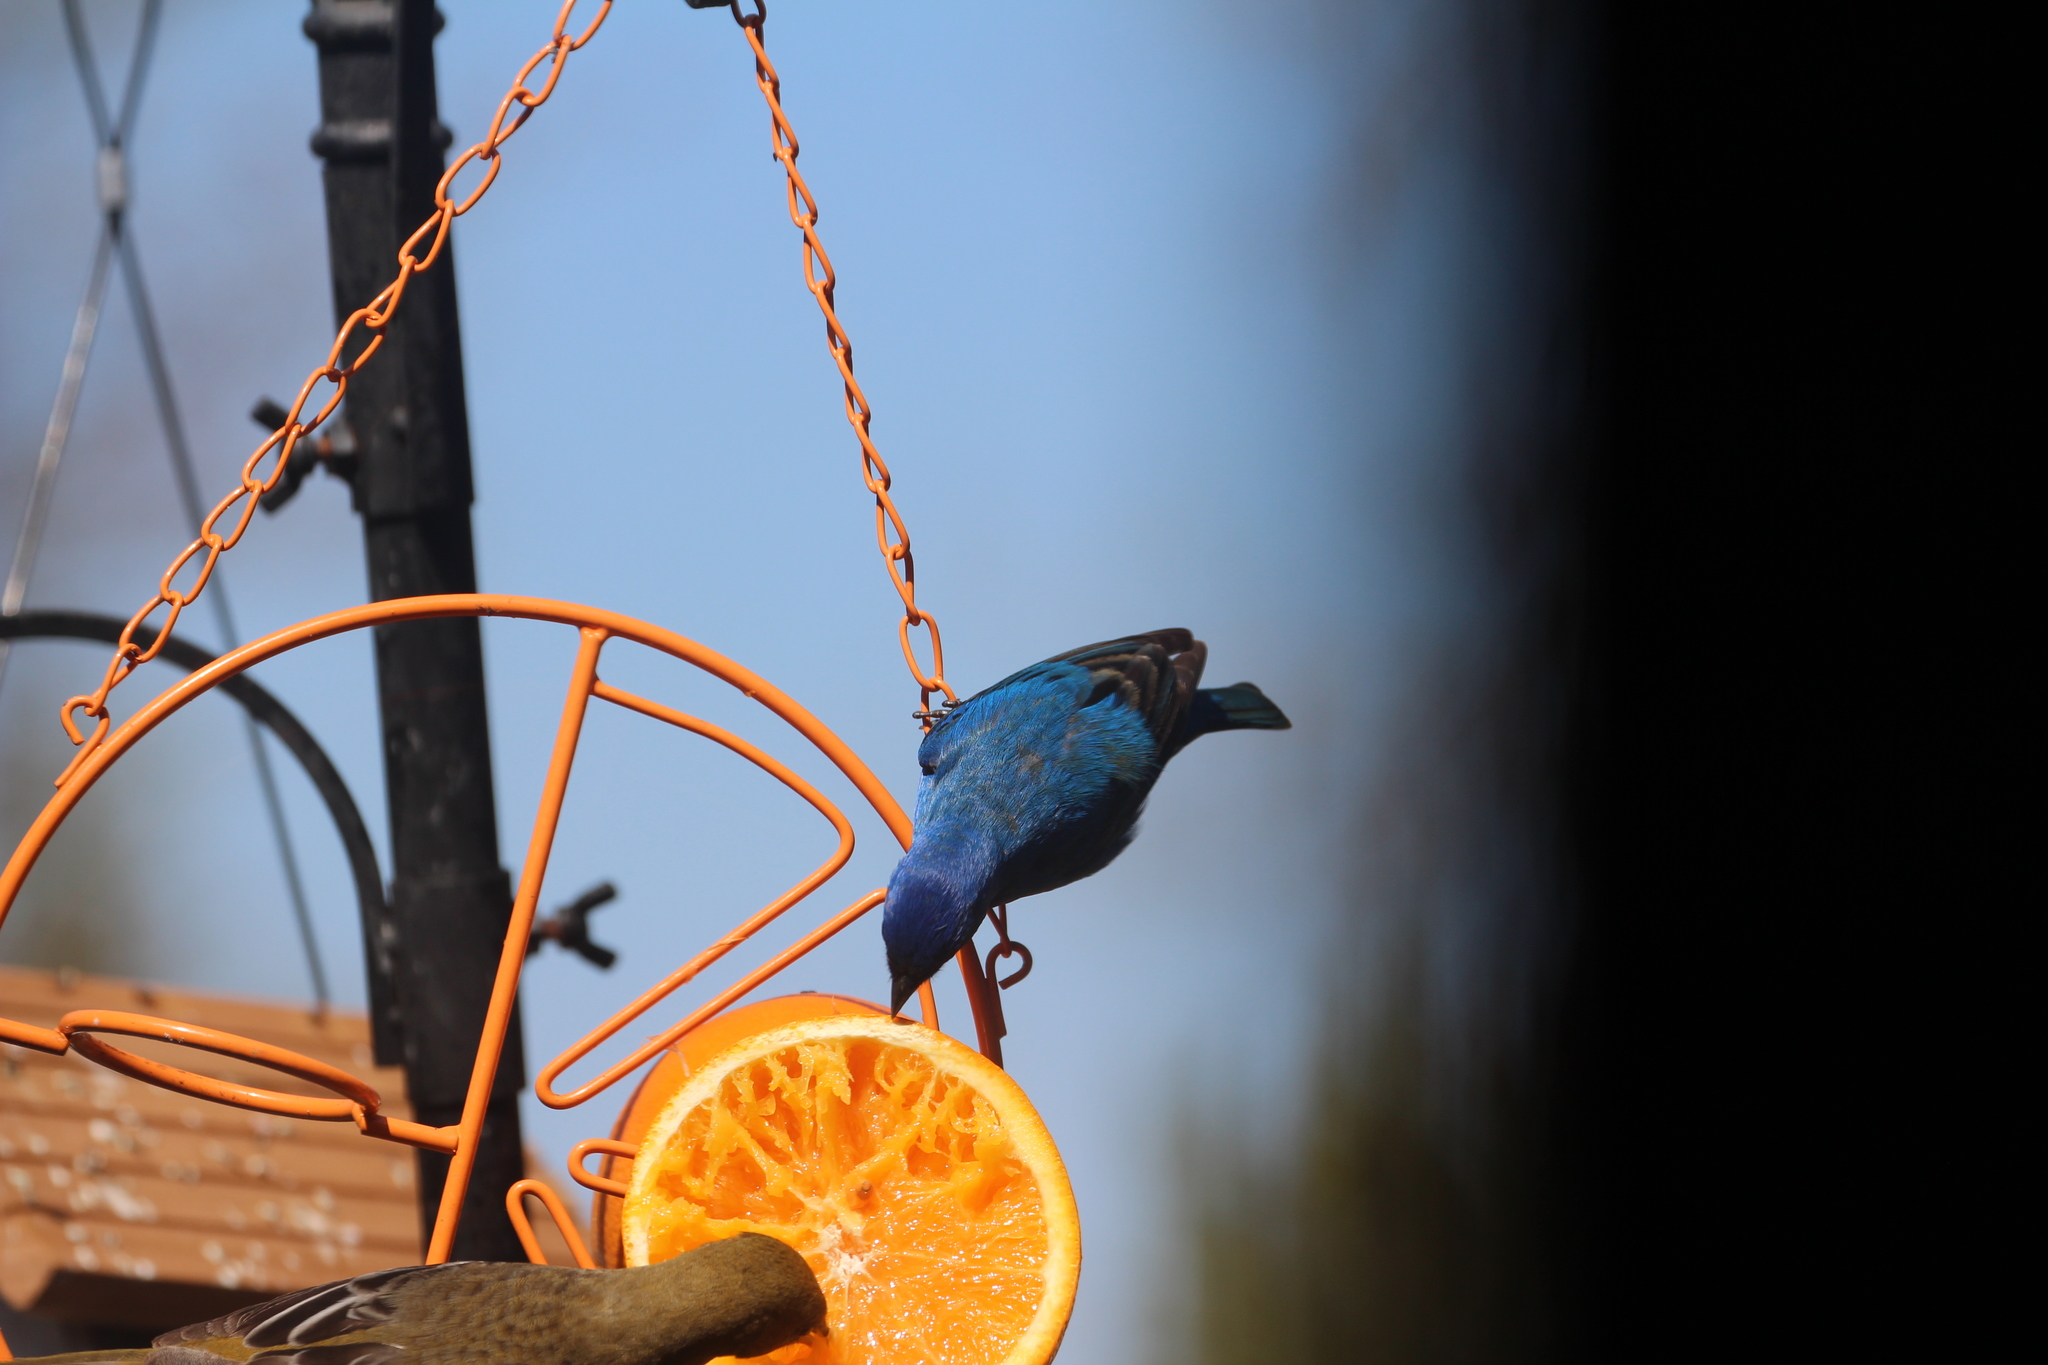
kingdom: Animalia
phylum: Chordata
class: Aves
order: Passeriformes
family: Cardinalidae
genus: Passerina
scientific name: Passerina cyanea
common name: Indigo bunting
